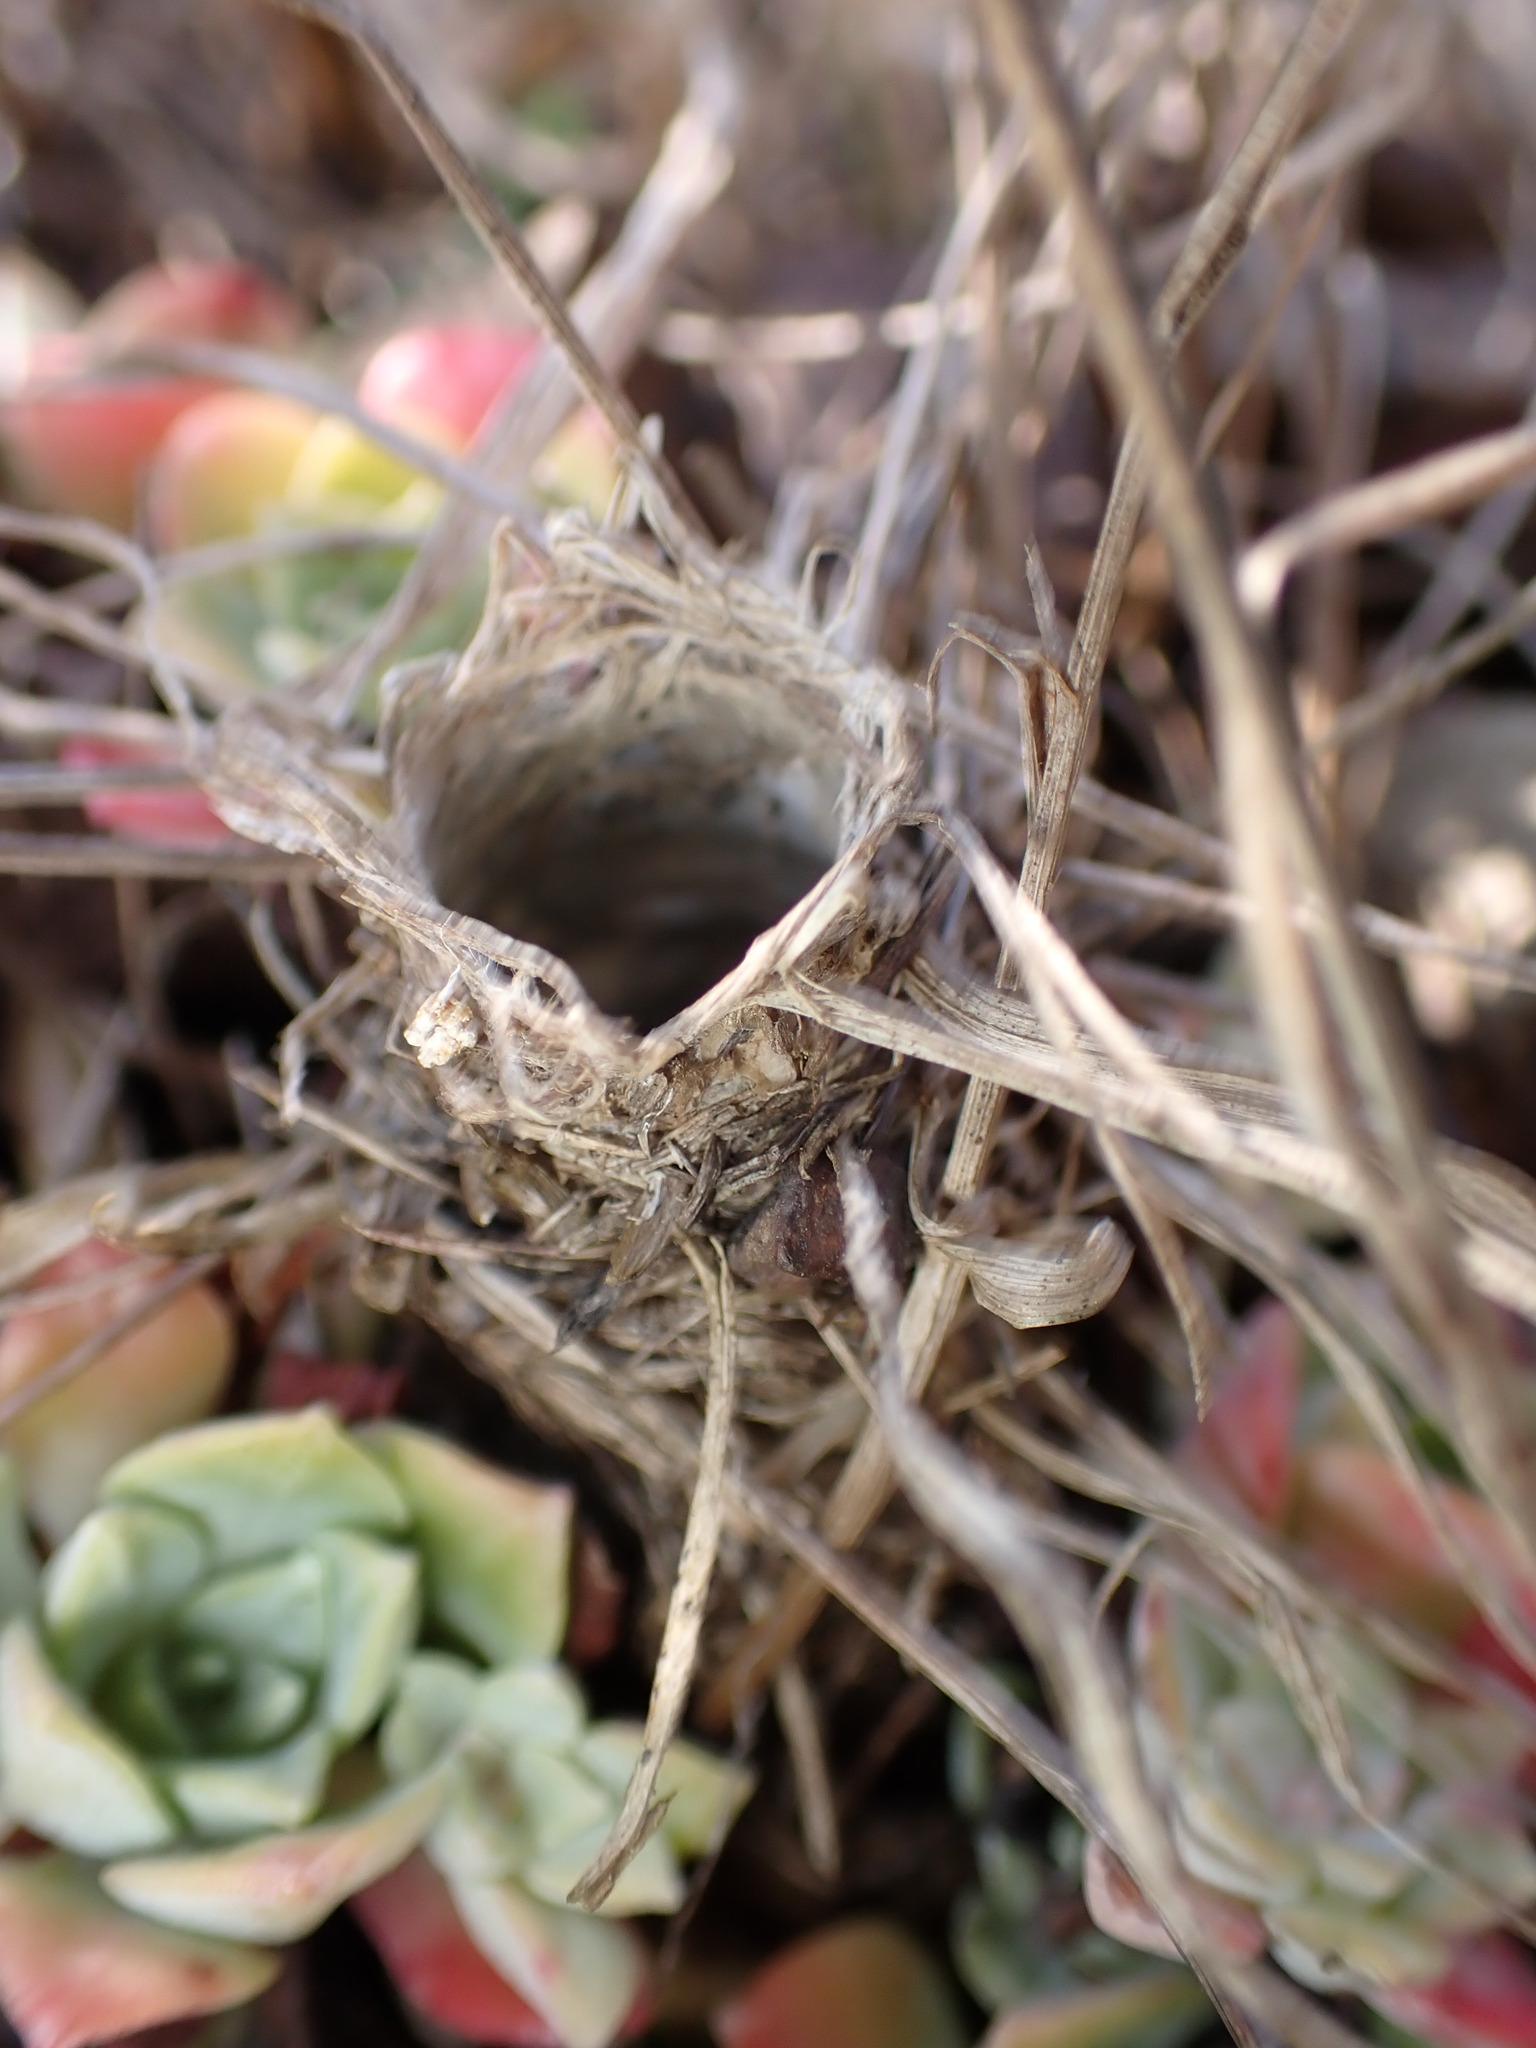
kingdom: Animalia
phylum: Arthropoda
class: Arachnida
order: Araneae
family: Antrodiaetidae
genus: Atypoides
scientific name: Atypoides riversi
